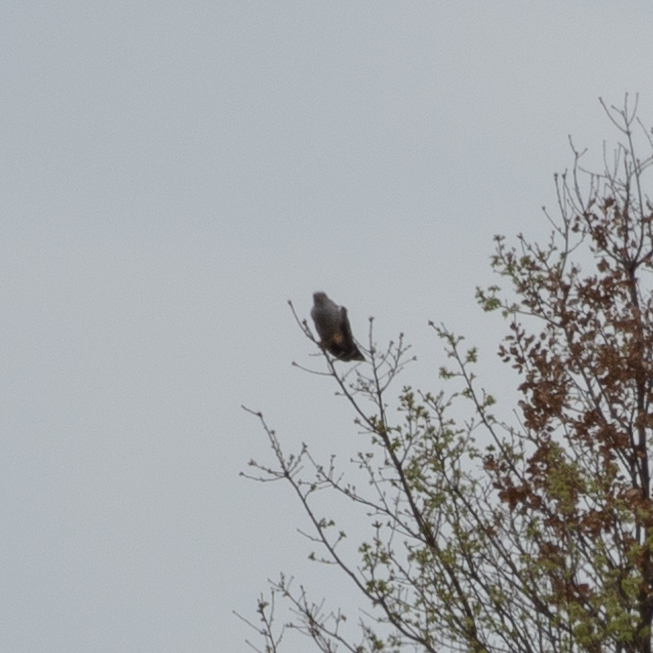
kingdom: Animalia
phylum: Chordata
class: Aves
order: Cuculiformes
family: Cuculidae
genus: Cuculus
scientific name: Cuculus canorus
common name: Common cuckoo
